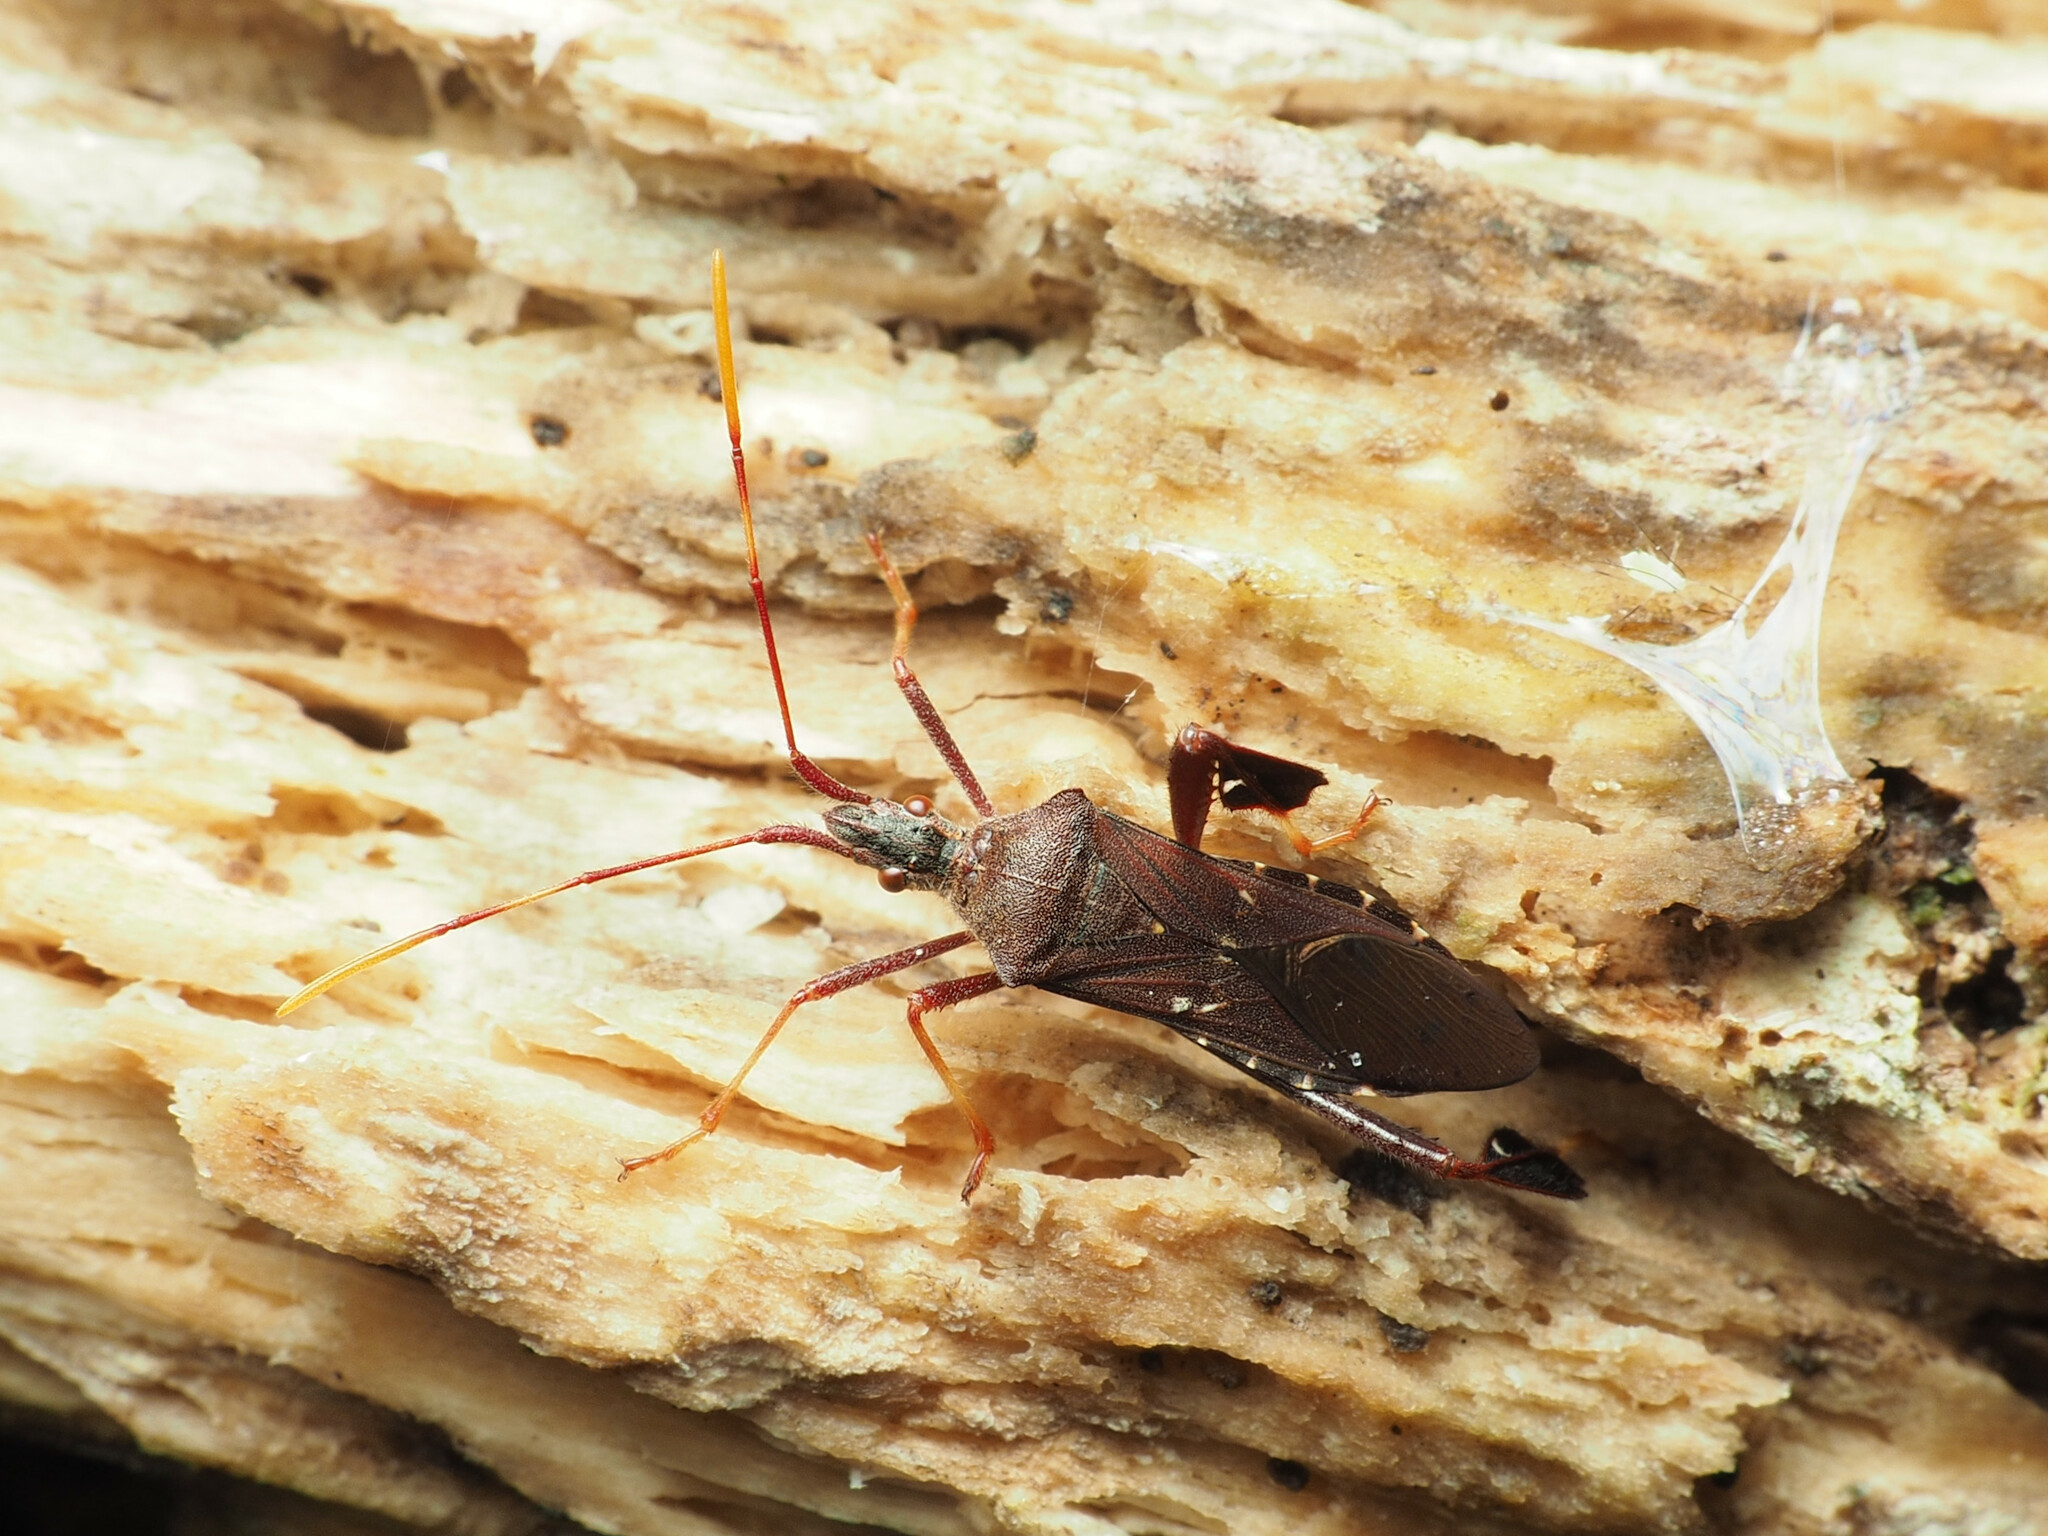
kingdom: Animalia
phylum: Arthropoda
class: Insecta
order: Hemiptera
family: Coreidae
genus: Leptoglossus
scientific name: Leptoglossus oppositus
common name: Northern leaf-footed bug
